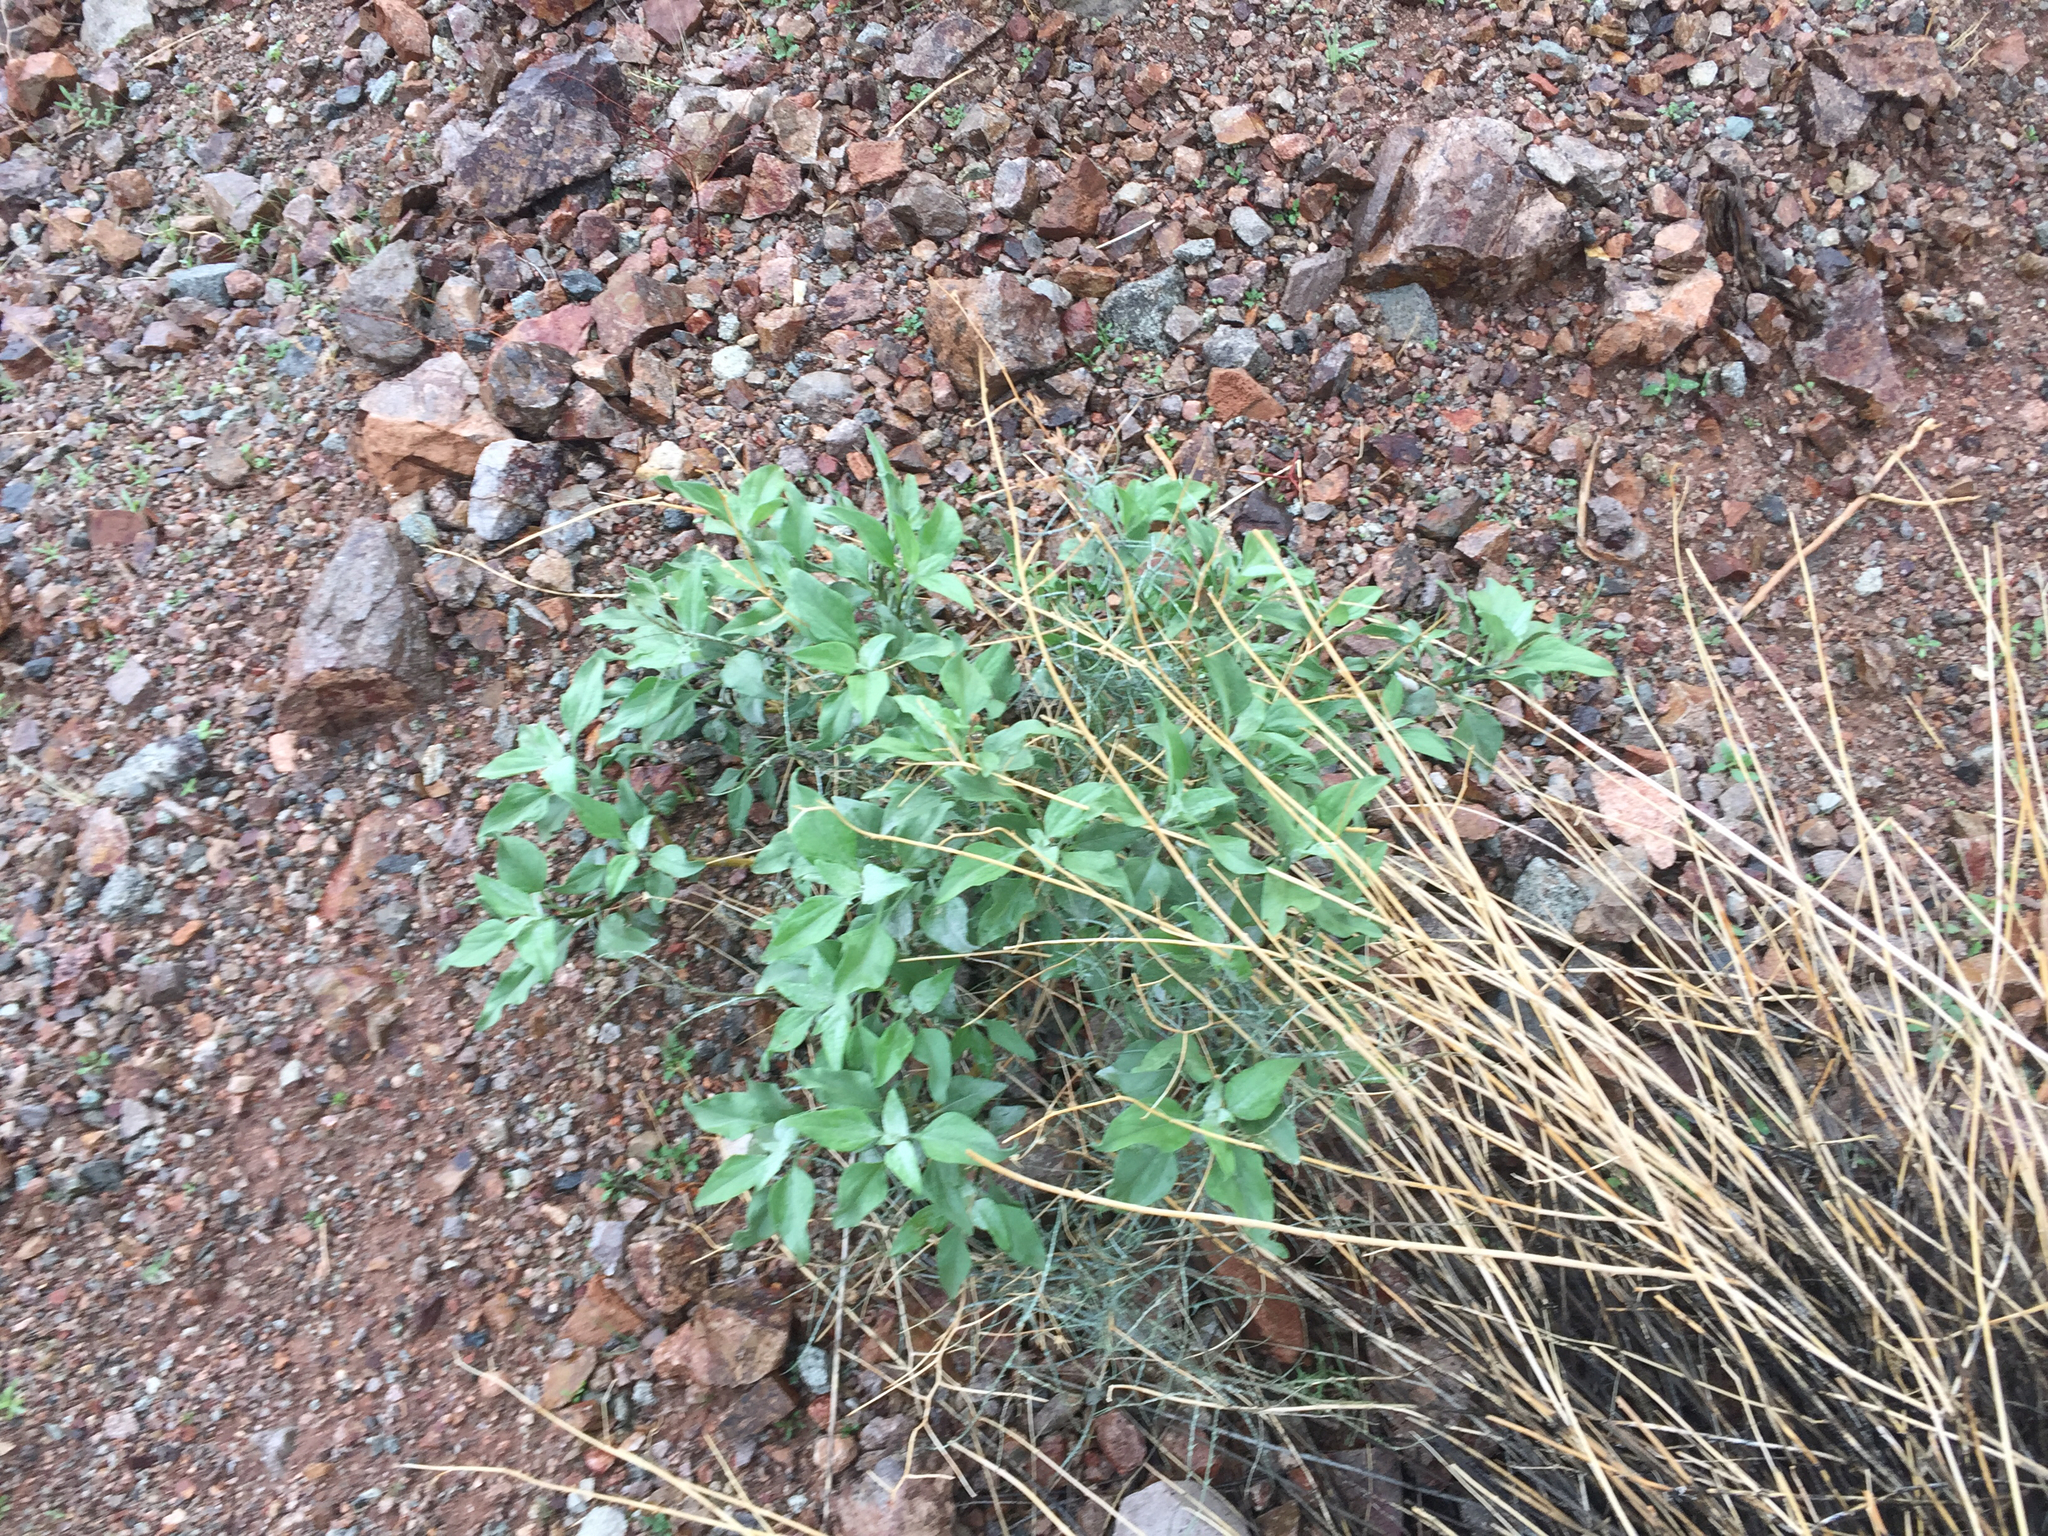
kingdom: Plantae
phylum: Tracheophyta
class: Magnoliopsida
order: Asterales
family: Asteraceae
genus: Encelia
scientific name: Encelia farinosa
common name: Brittlebush
